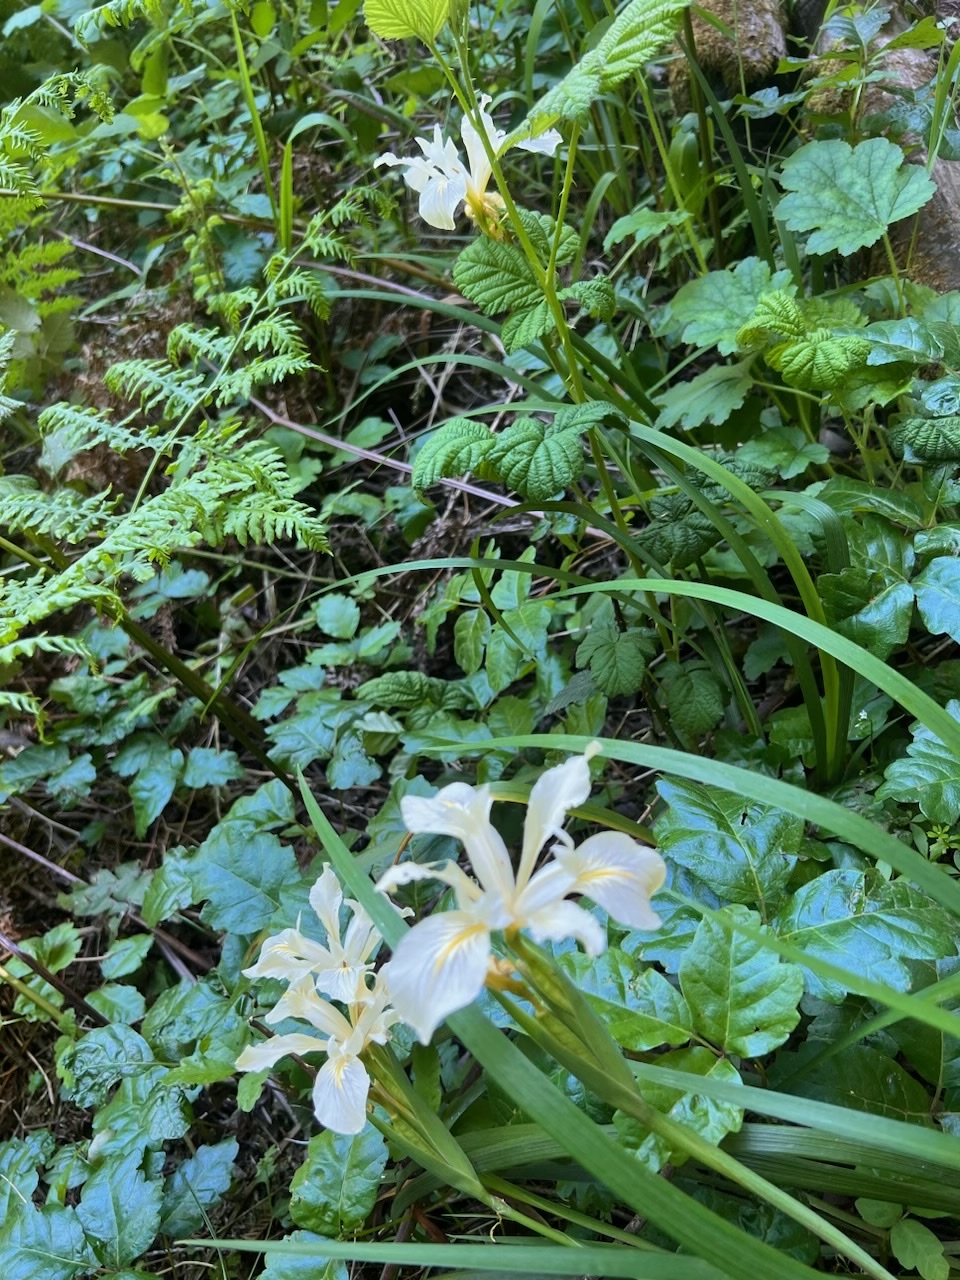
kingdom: Plantae
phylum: Tracheophyta
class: Liliopsida
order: Asparagales
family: Iridaceae
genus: Iris
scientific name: Iris douglasiana
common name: Marin iris
